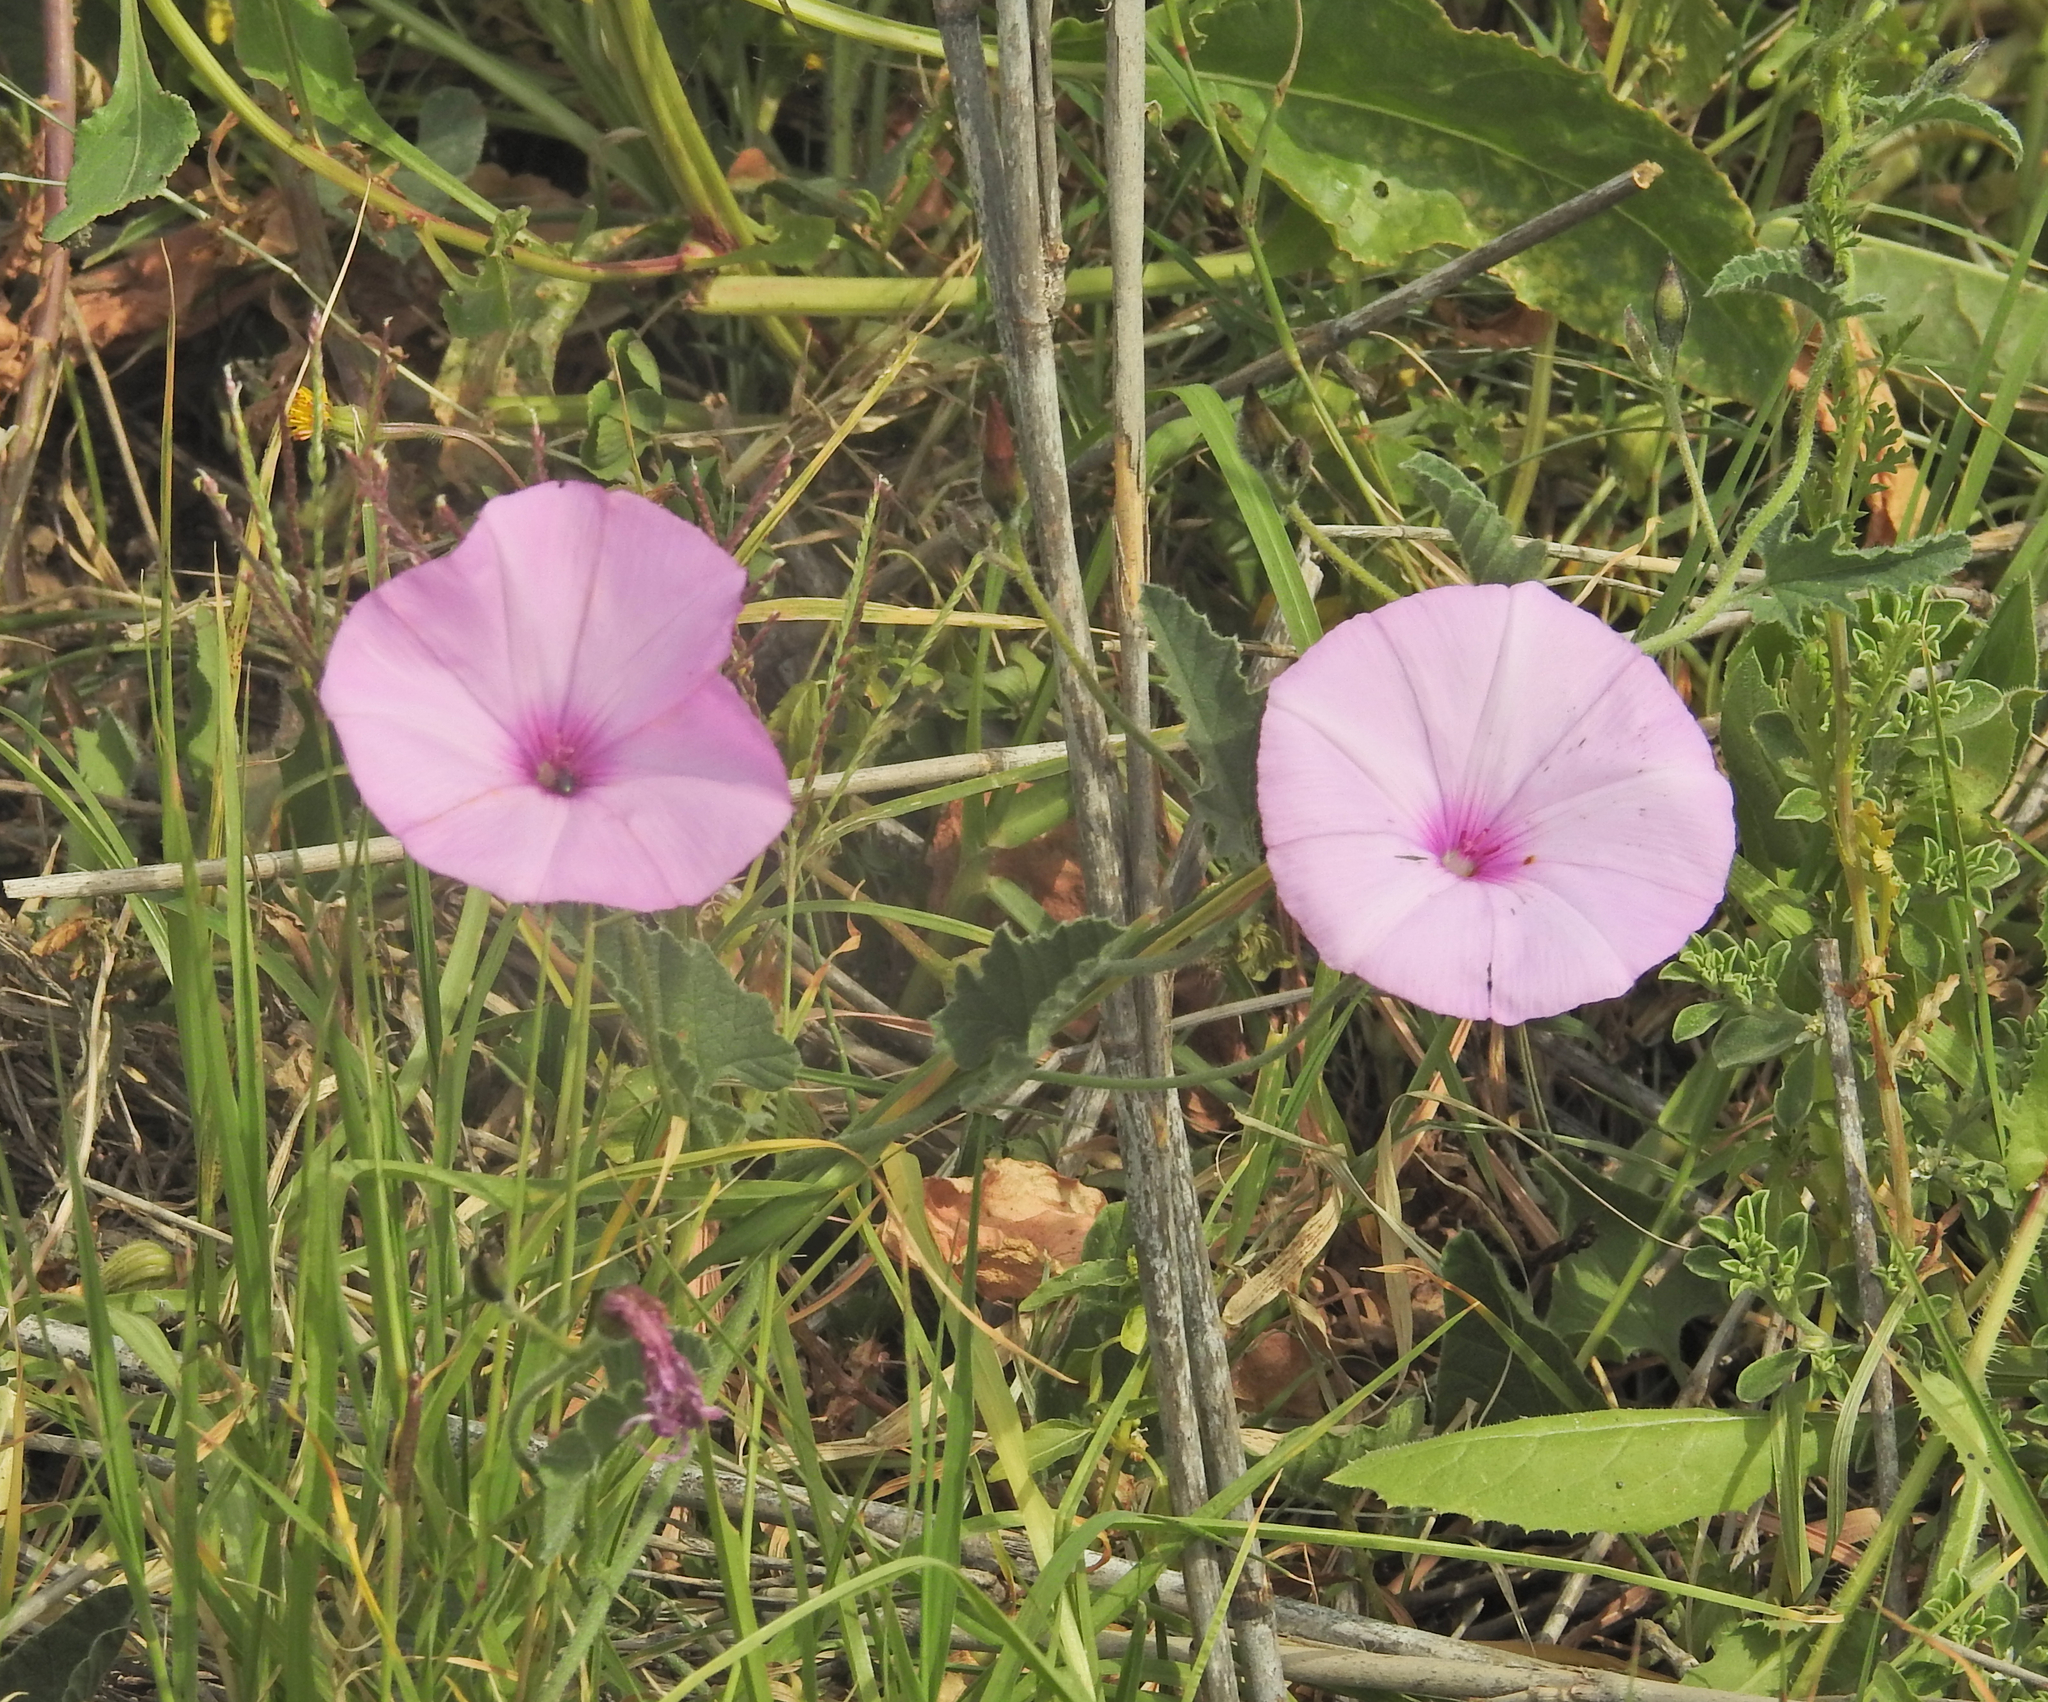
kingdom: Plantae
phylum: Tracheophyta
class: Magnoliopsida
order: Solanales
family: Convolvulaceae
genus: Convolvulus
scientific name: Convolvulus althaeoides
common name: Mallow bindweed
